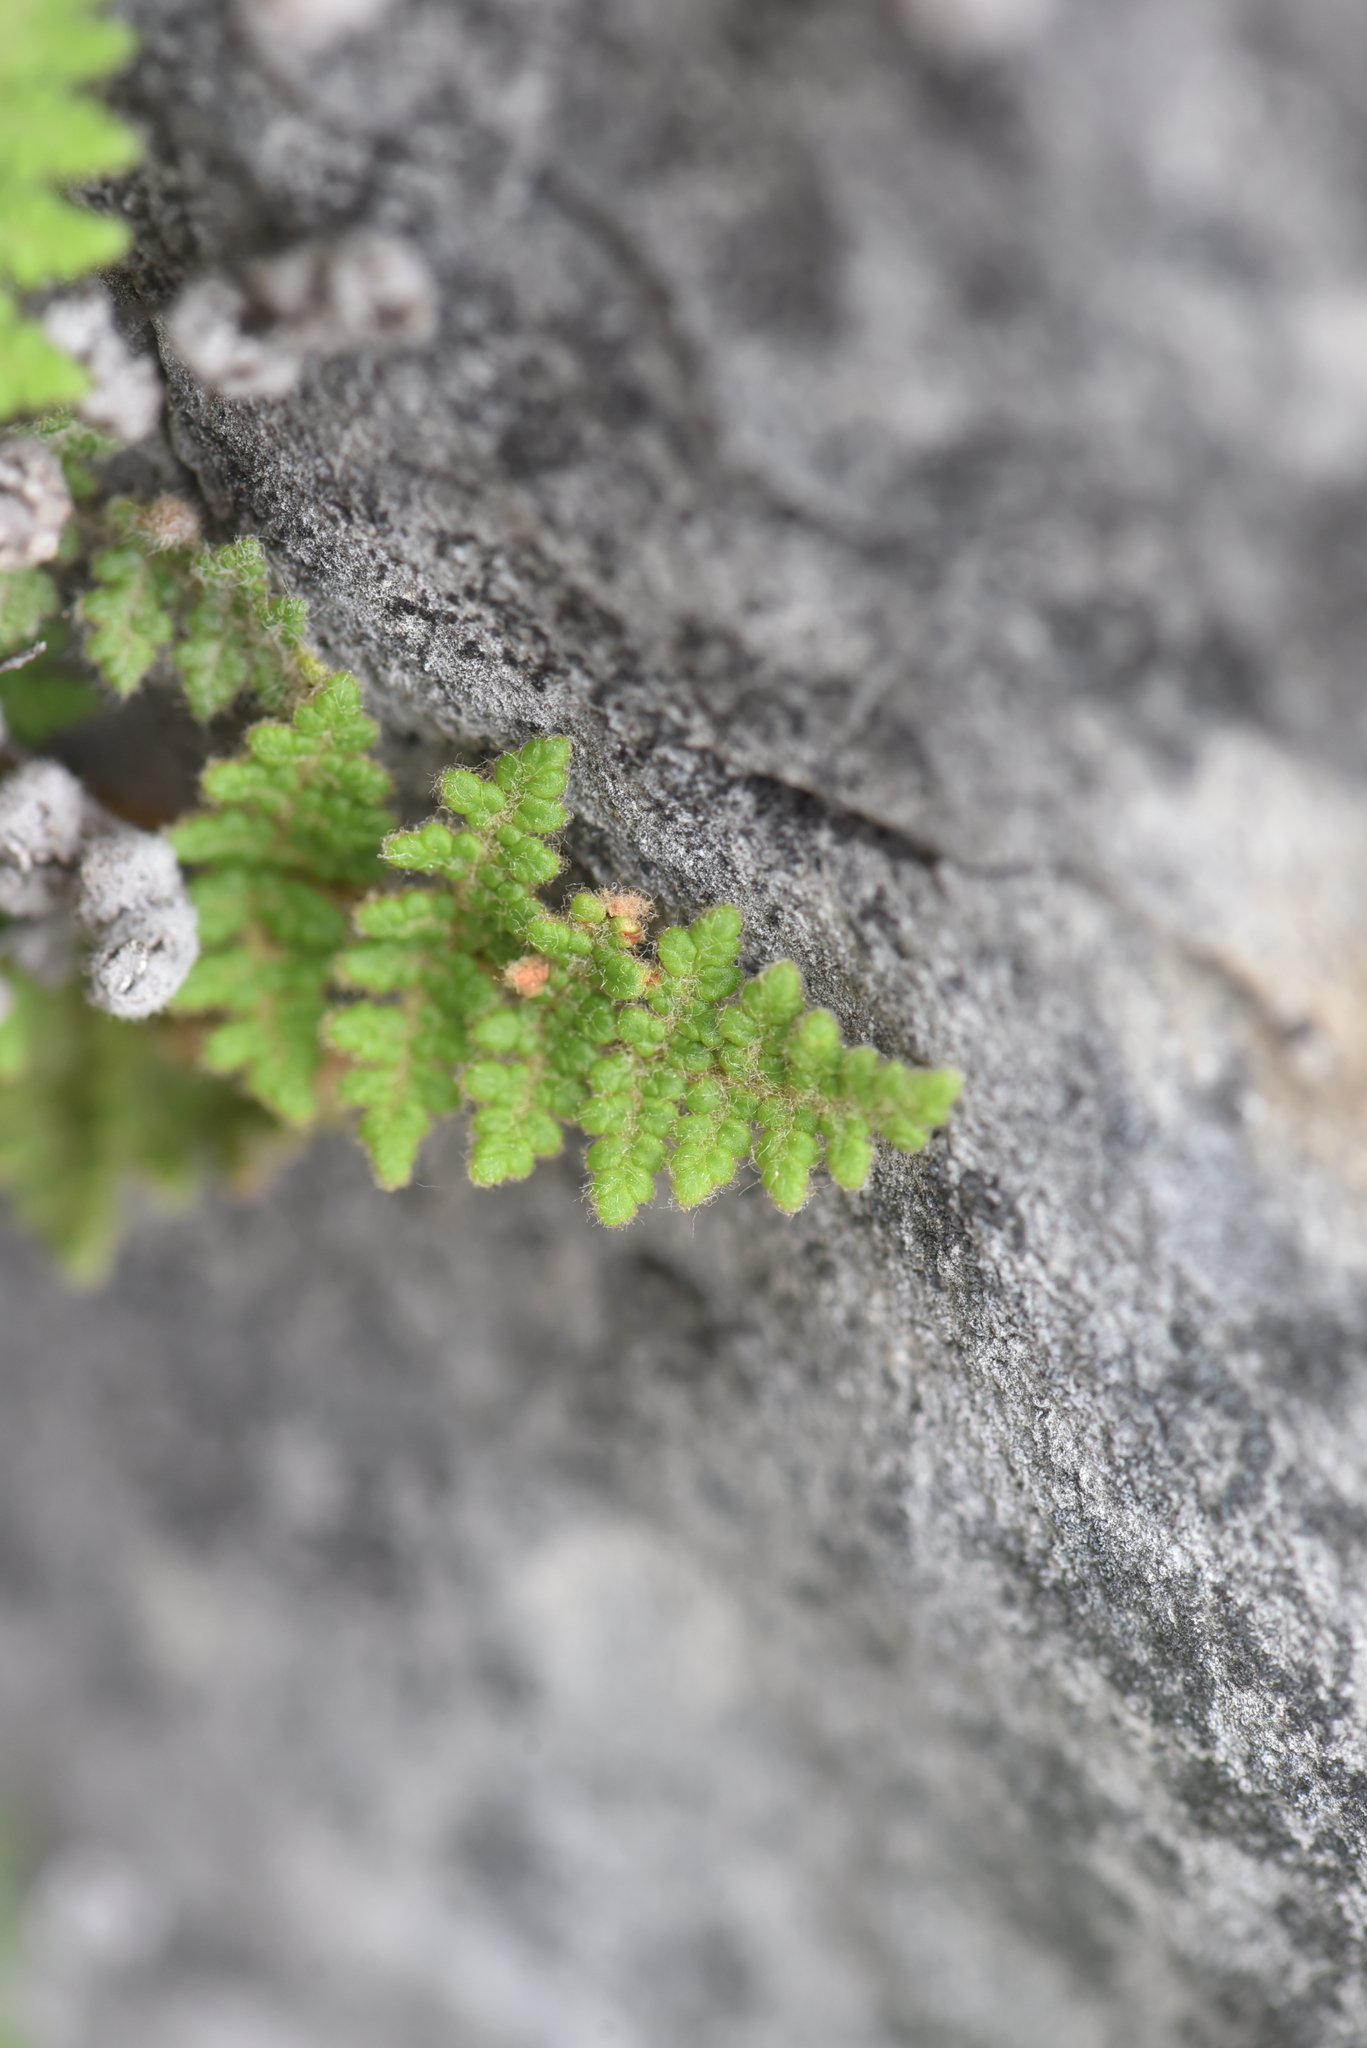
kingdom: Plantae
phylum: Tracheophyta
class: Polypodiopsida
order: Polypodiales
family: Pteridaceae
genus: Myriopteris
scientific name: Myriopteris gracilis
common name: Fee's lip fern
